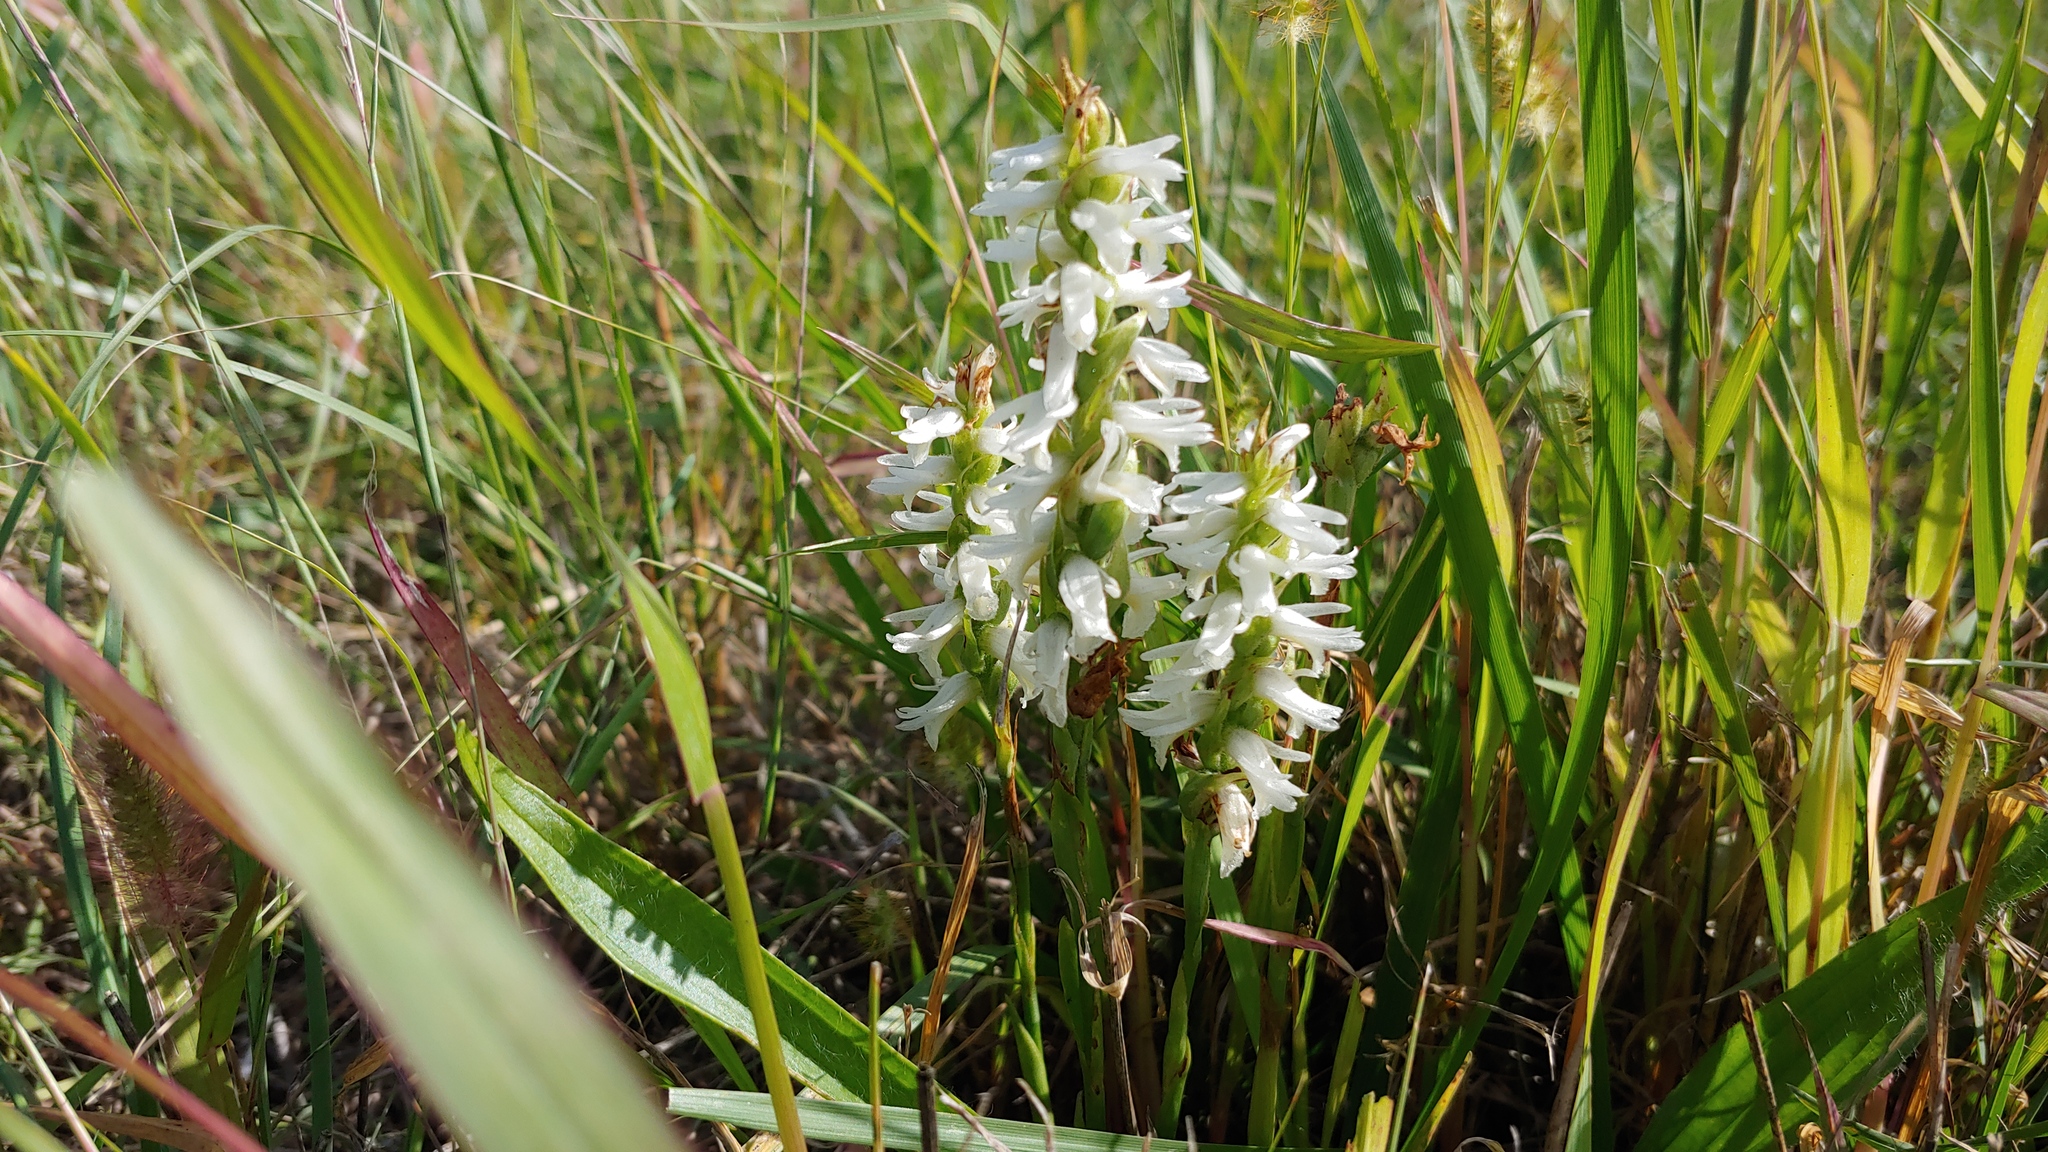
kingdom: Plantae
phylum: Tracheophyta
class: Liliopsida
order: Asparagales
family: Orchidaceae
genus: Spiranthes
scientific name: Spiranthes magnicamporum
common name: Great plains ladies'-tresses
